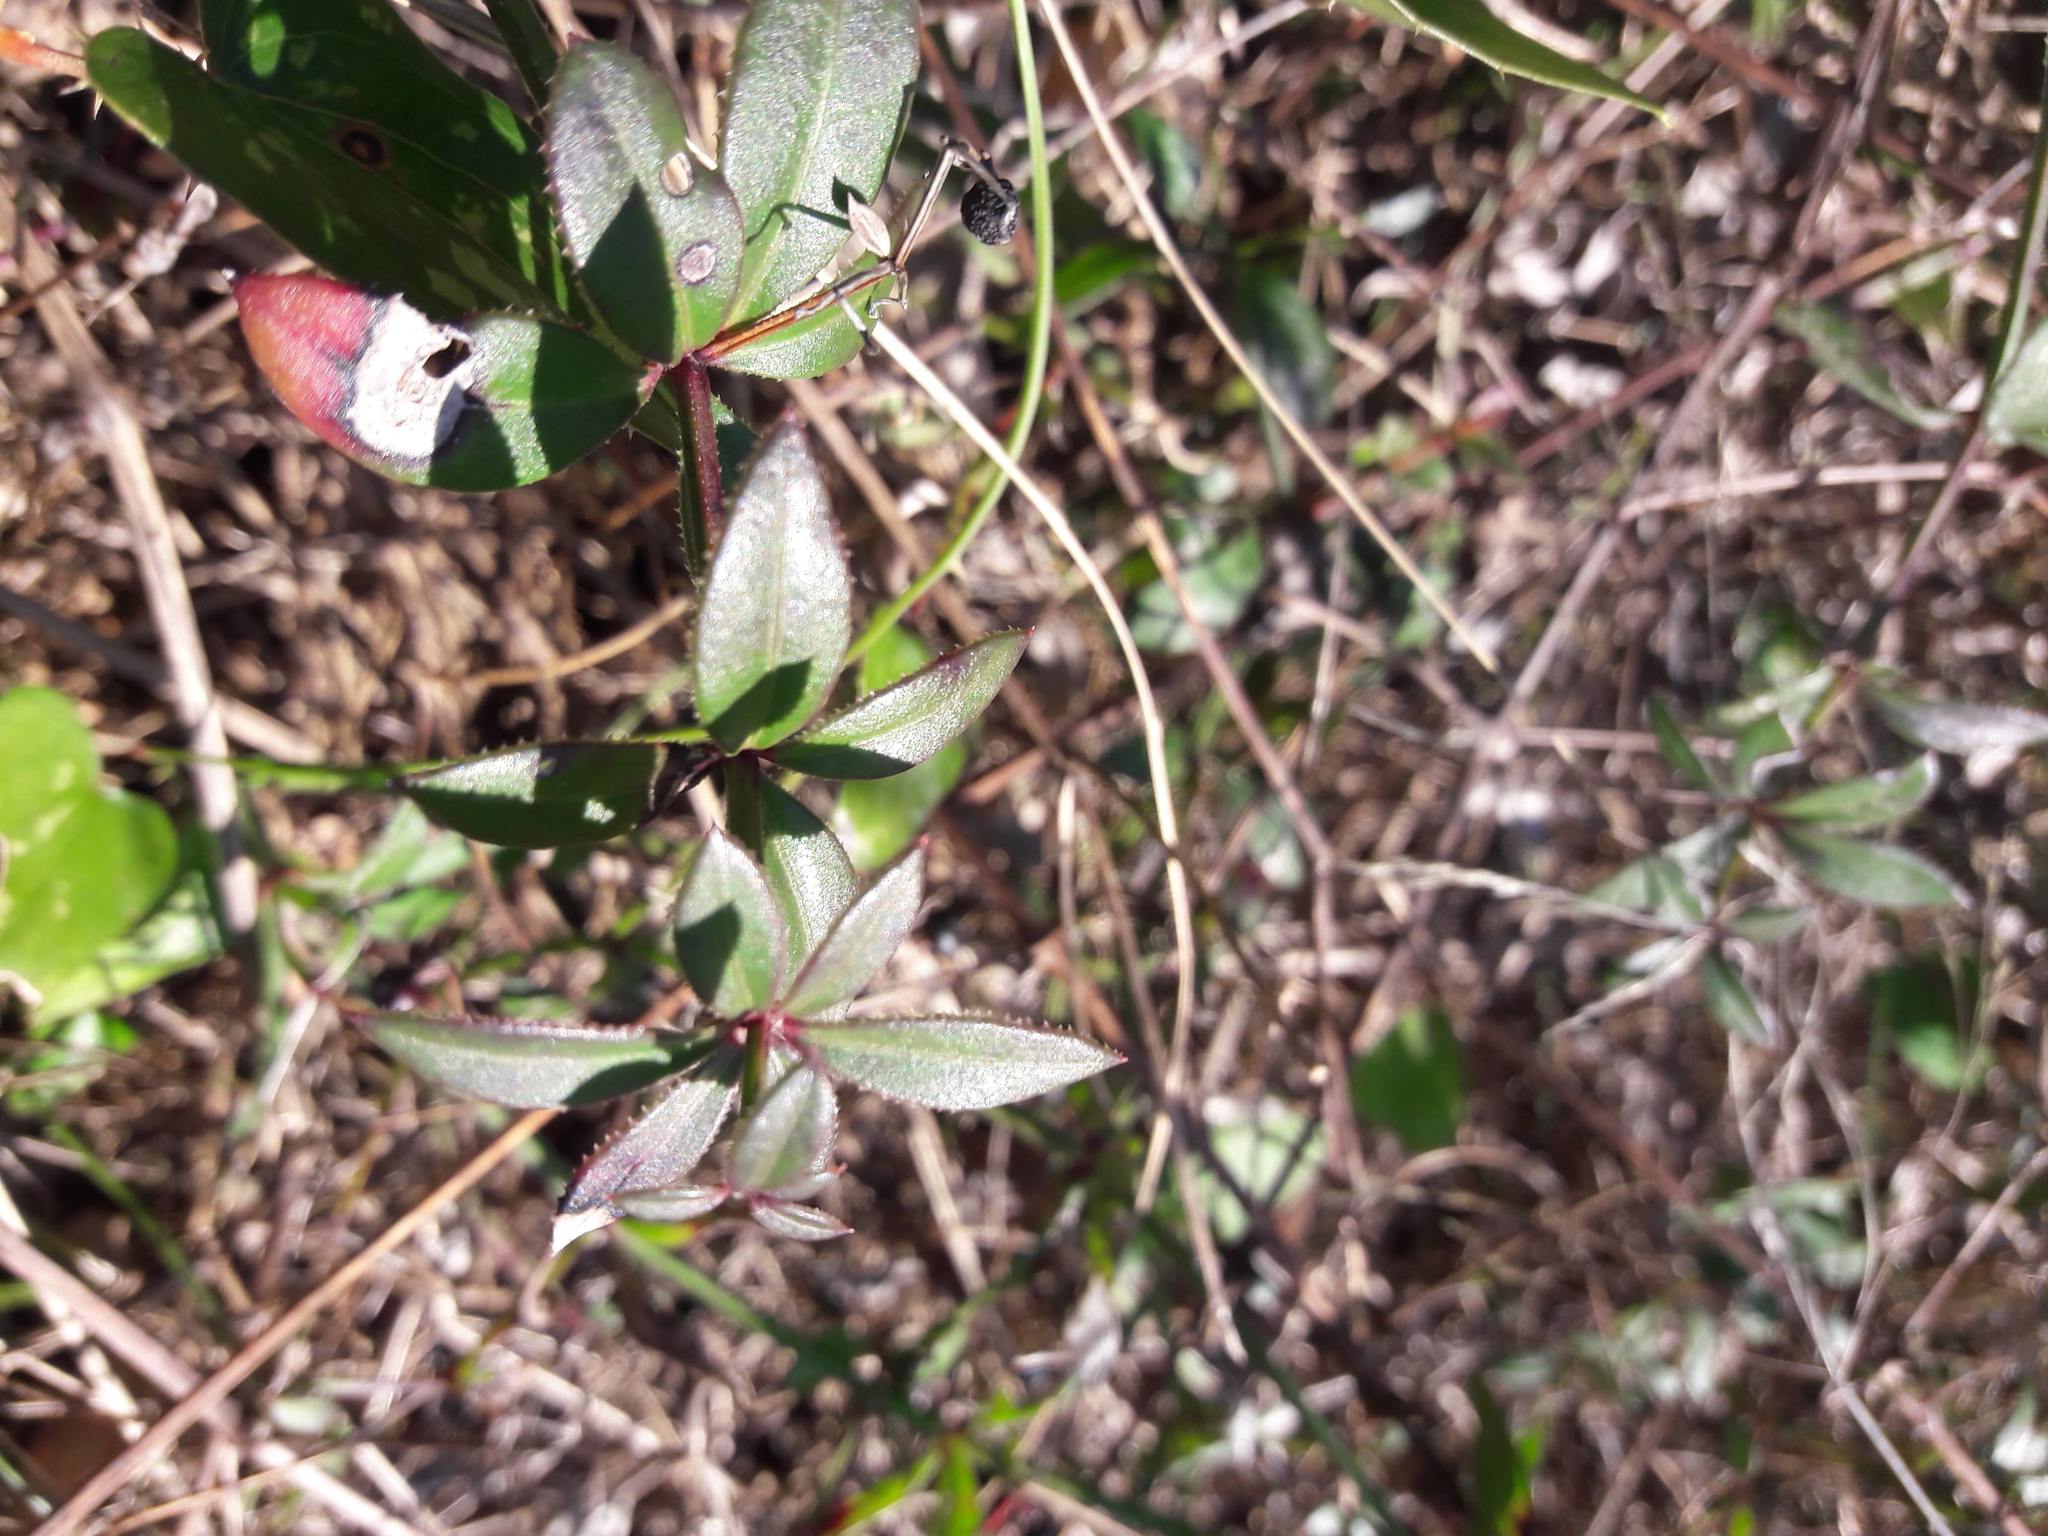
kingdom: Plantae
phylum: Tracheophyta
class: Magnoliopsida
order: Gentianales
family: Rubiaceae
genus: Rubia
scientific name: Rubia peregrina
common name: Wild madder
